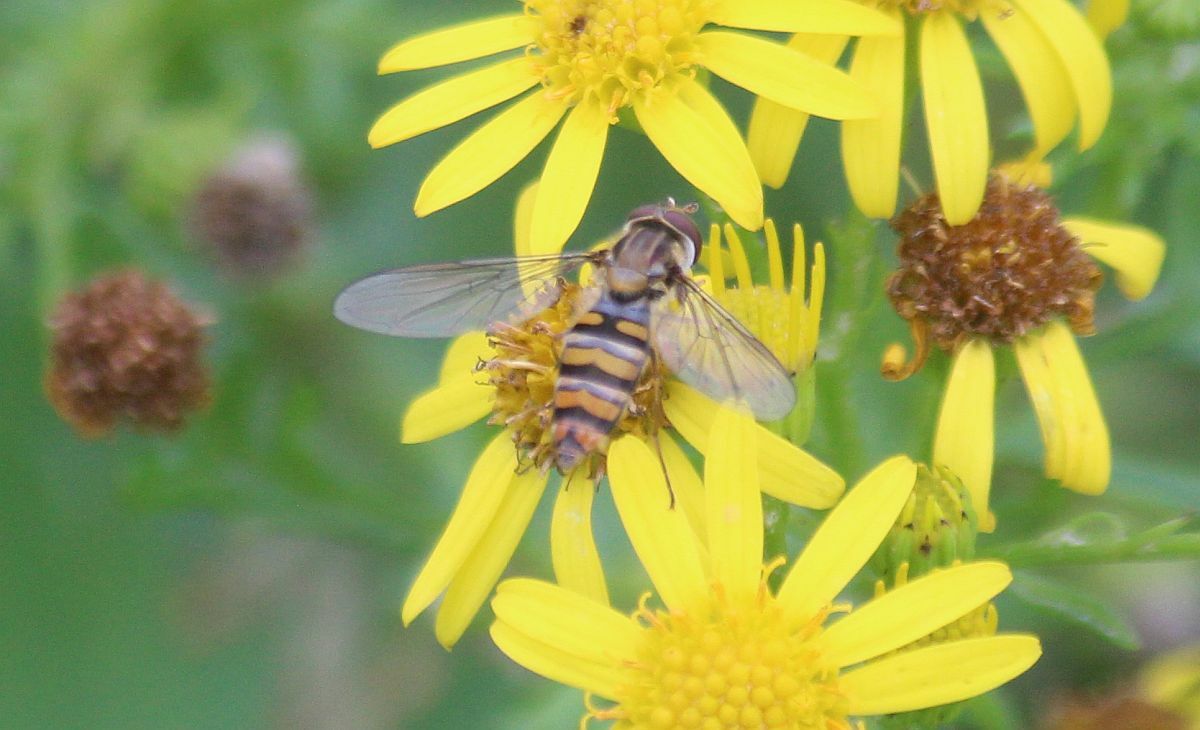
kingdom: Animalia
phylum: Arthropoda
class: Insecta
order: Diptera
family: Syrphidae
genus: Episyrphus
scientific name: Episyrphus balteatus
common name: Marmalade hoverfly
